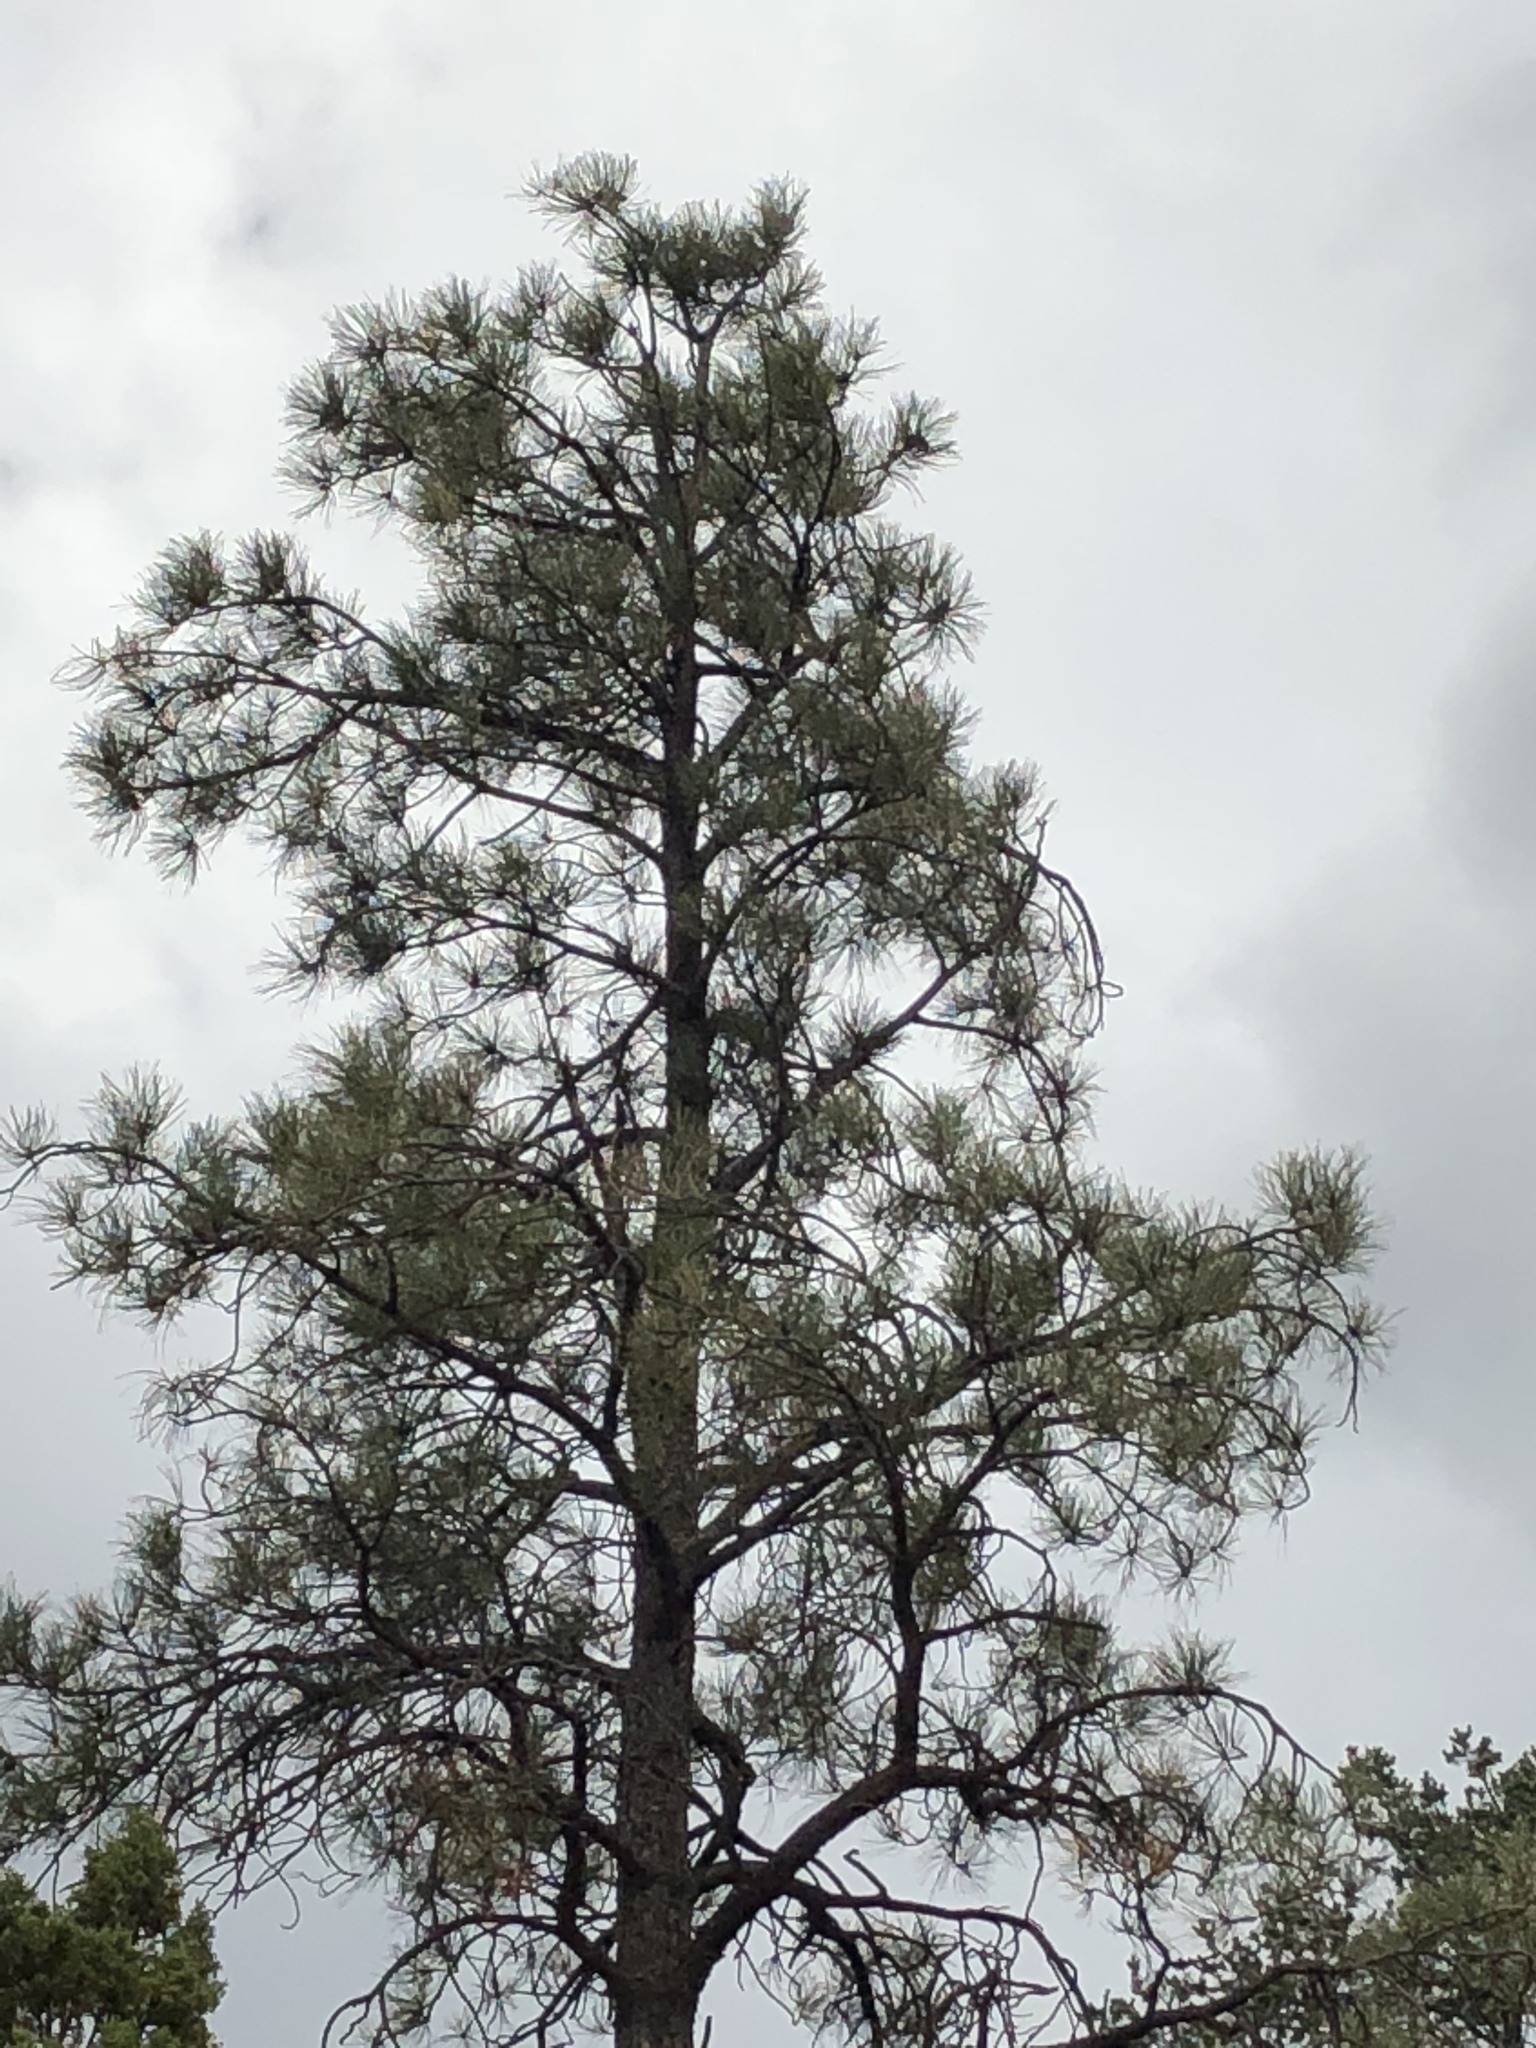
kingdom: Plantae
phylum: Tracheophyta
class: Pinopsida
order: Pinales
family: Pinaceae
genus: Pinus
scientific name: Pinus ponderosa
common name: Western yellow-pine
